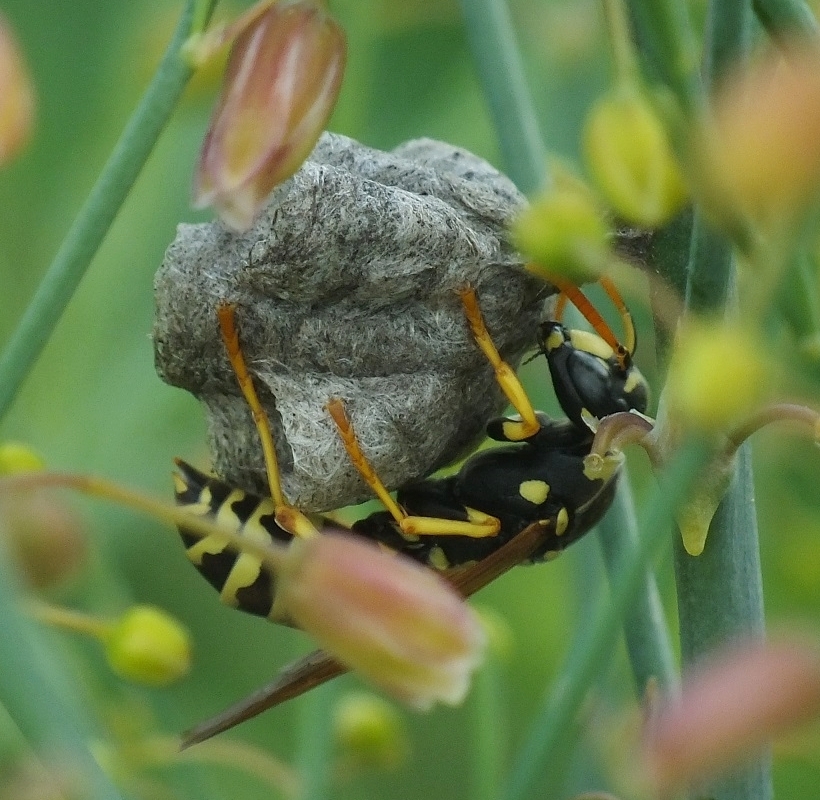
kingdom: Animalia
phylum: Arthropoda
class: Insecta
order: Hymenoptera
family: Eumenidae
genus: Polistes
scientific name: Polistes gallicus
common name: Paper wasp
